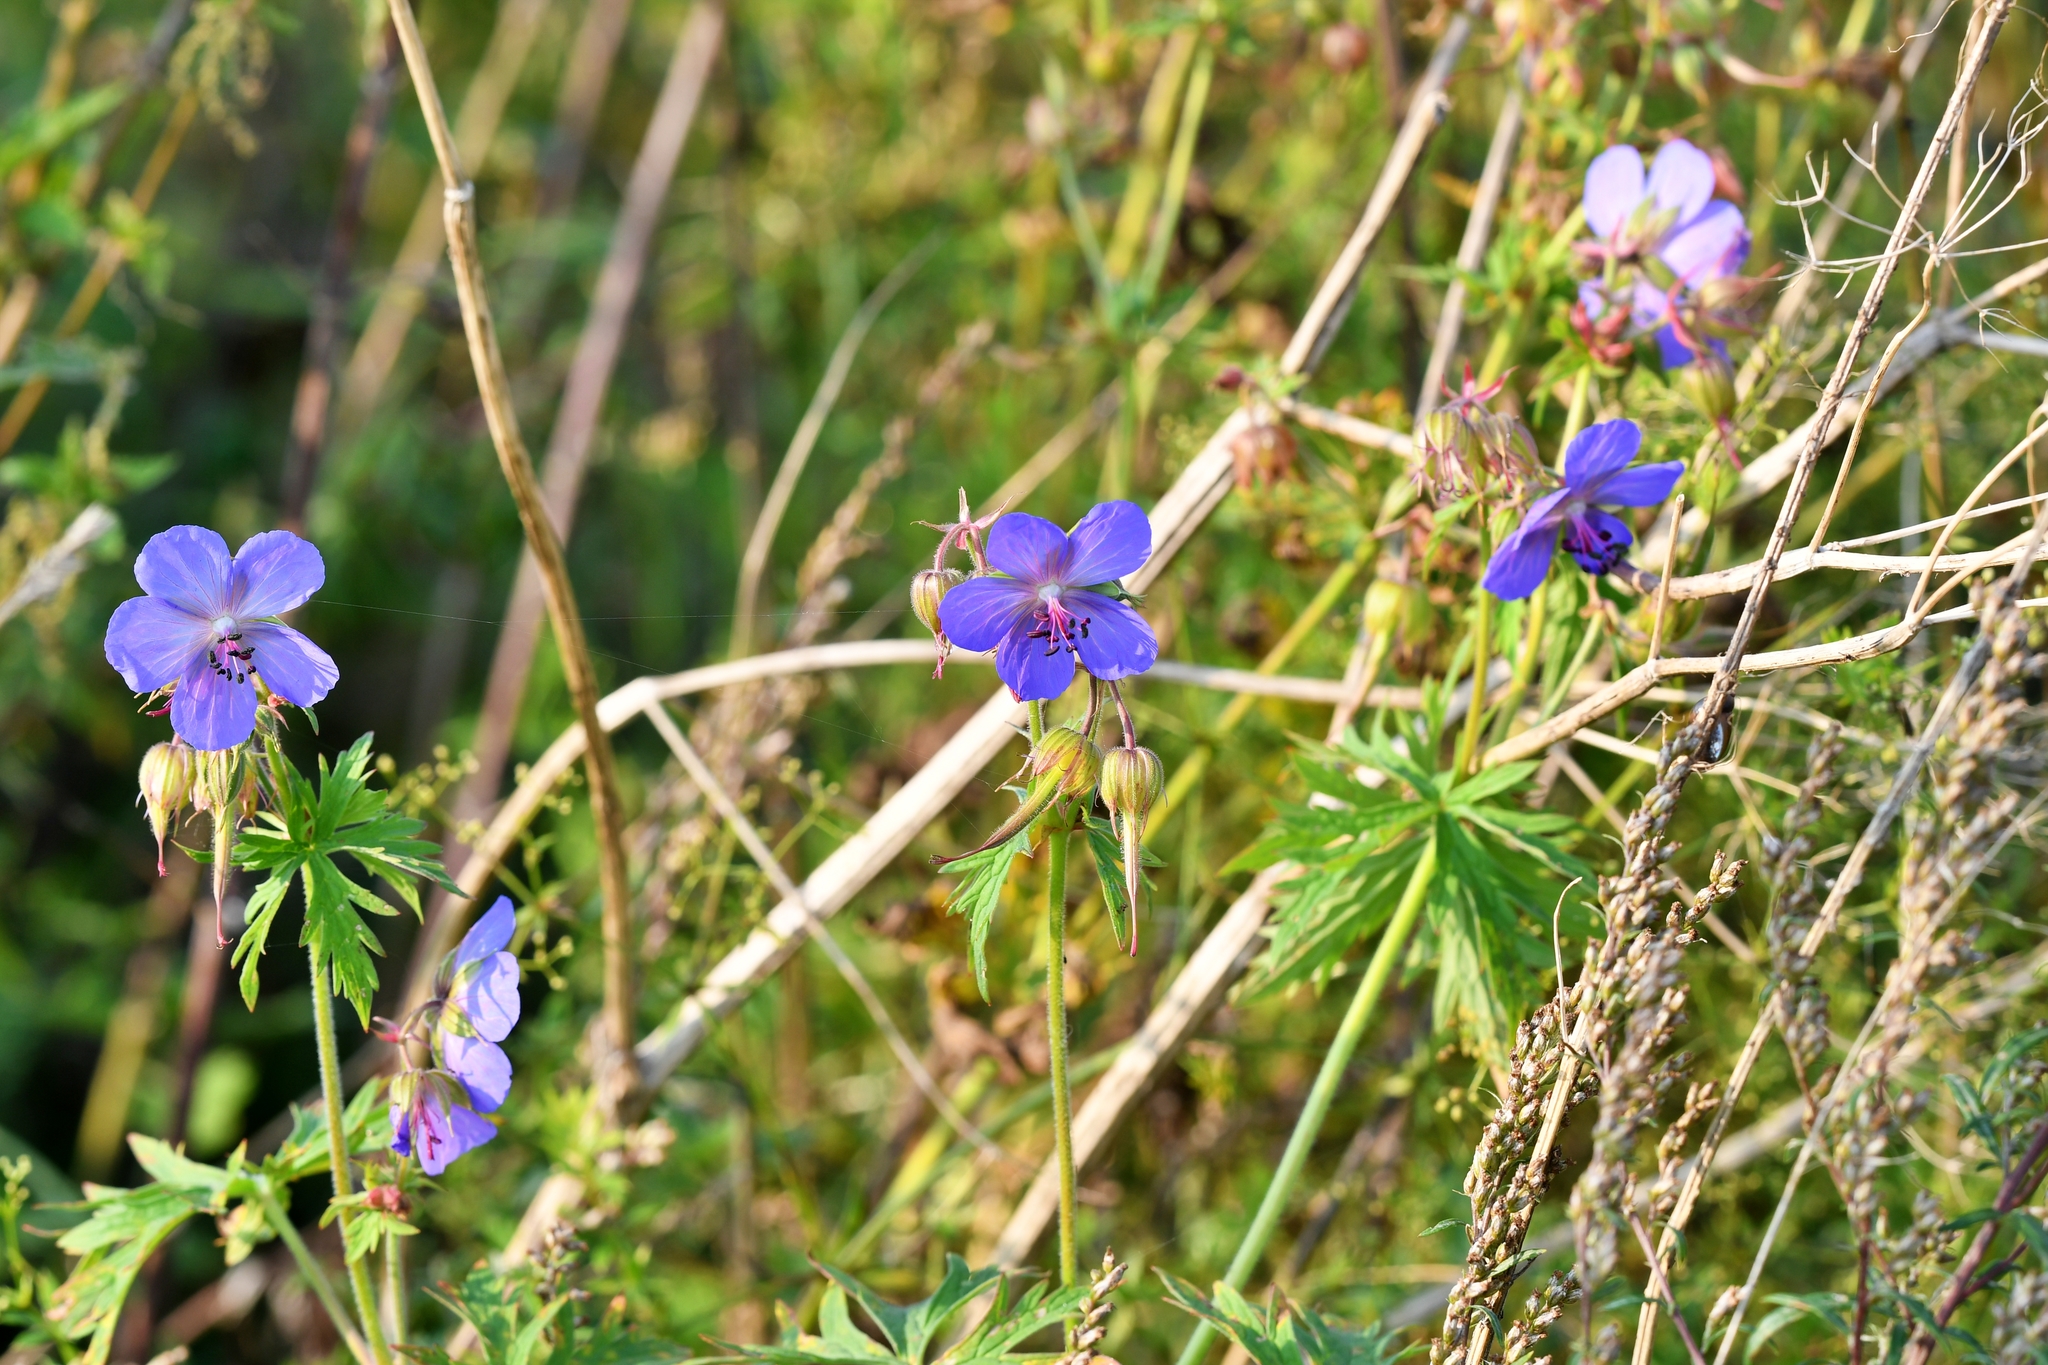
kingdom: Plantae
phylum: Tracheophyta
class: Magnoliopsida
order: Geraniales
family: Geraniaceae
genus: Geranium
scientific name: Geranium pratense
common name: Meadow crane's-bill
